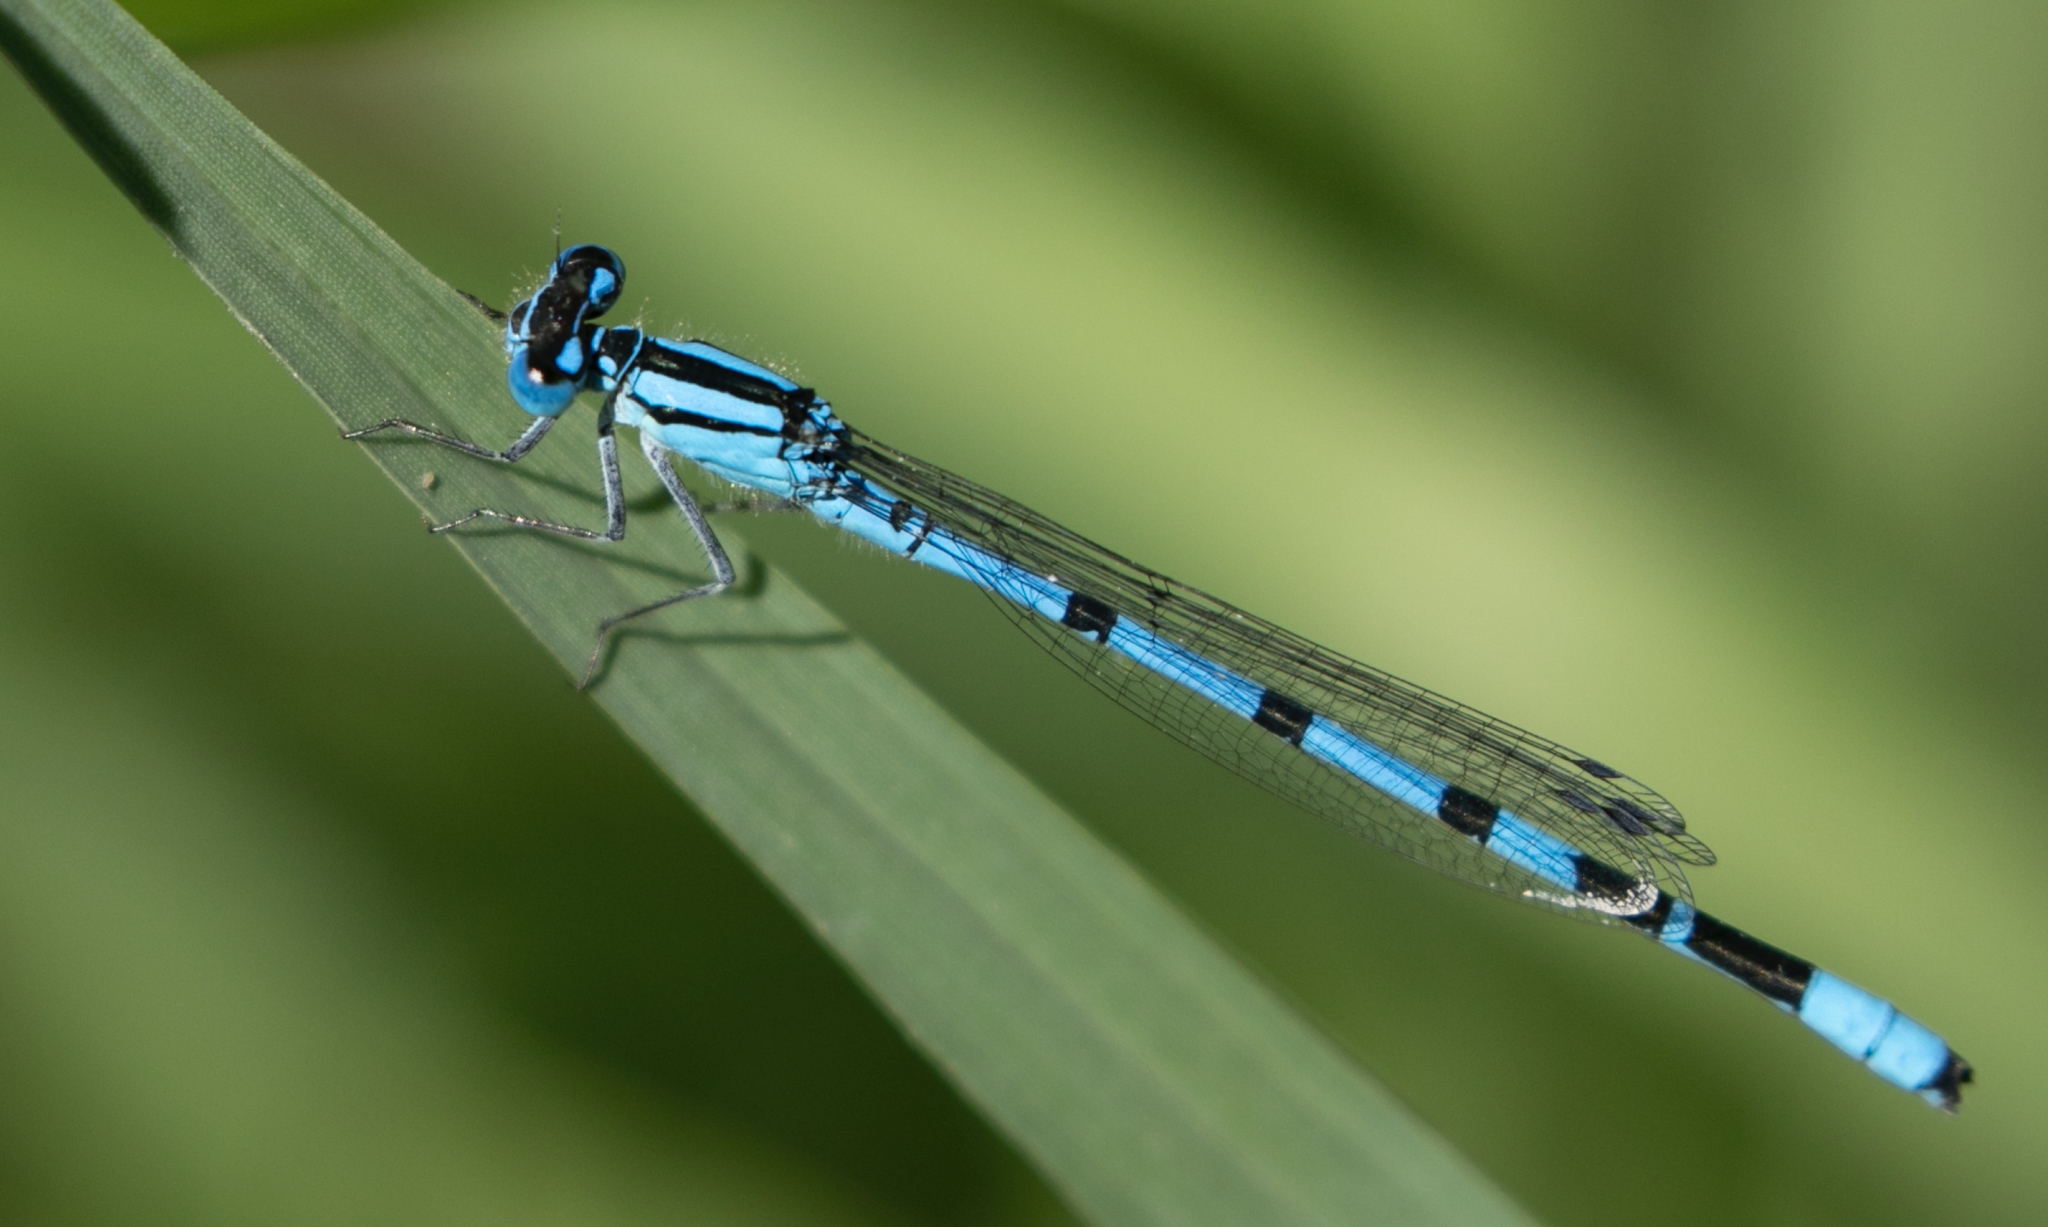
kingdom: Animalia
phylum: Arthropoda
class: Insecta
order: Odonata
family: Coenagrionidae
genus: Enallagma
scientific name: Enallagma cyathigerum
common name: Common blue damselfly
